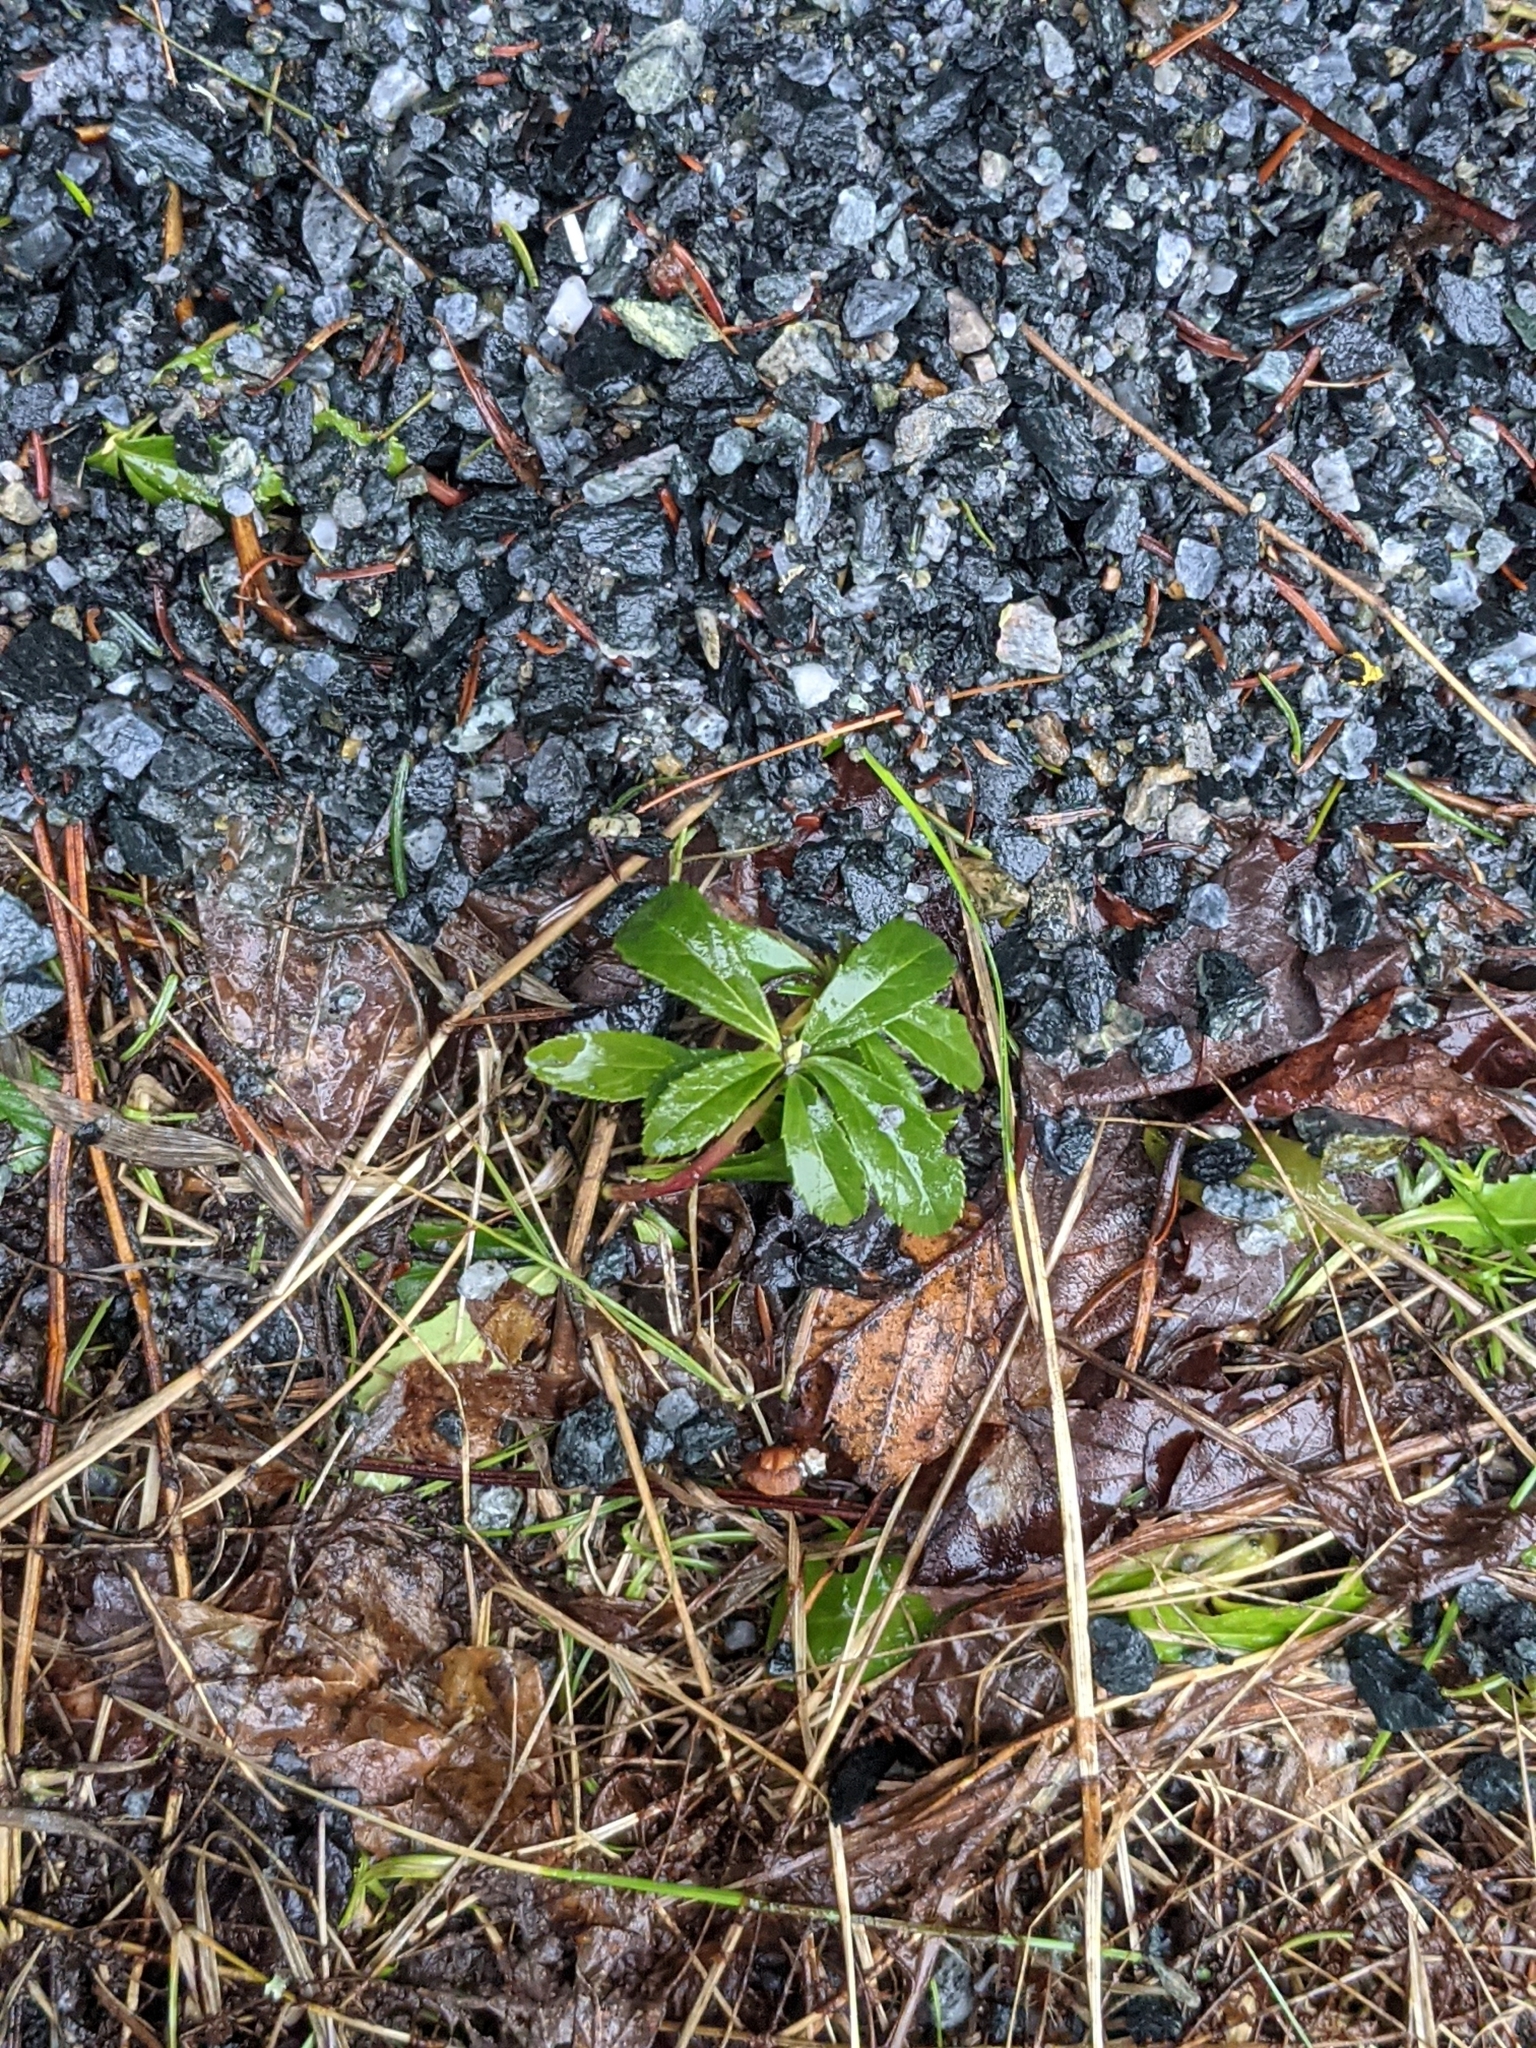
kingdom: Plantae
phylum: Tracheophyta
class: Magnoliopsida
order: Ericales
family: Ericaceae
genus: Chimaphila
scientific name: Chimaphila umbellata
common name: Pipsissewa
